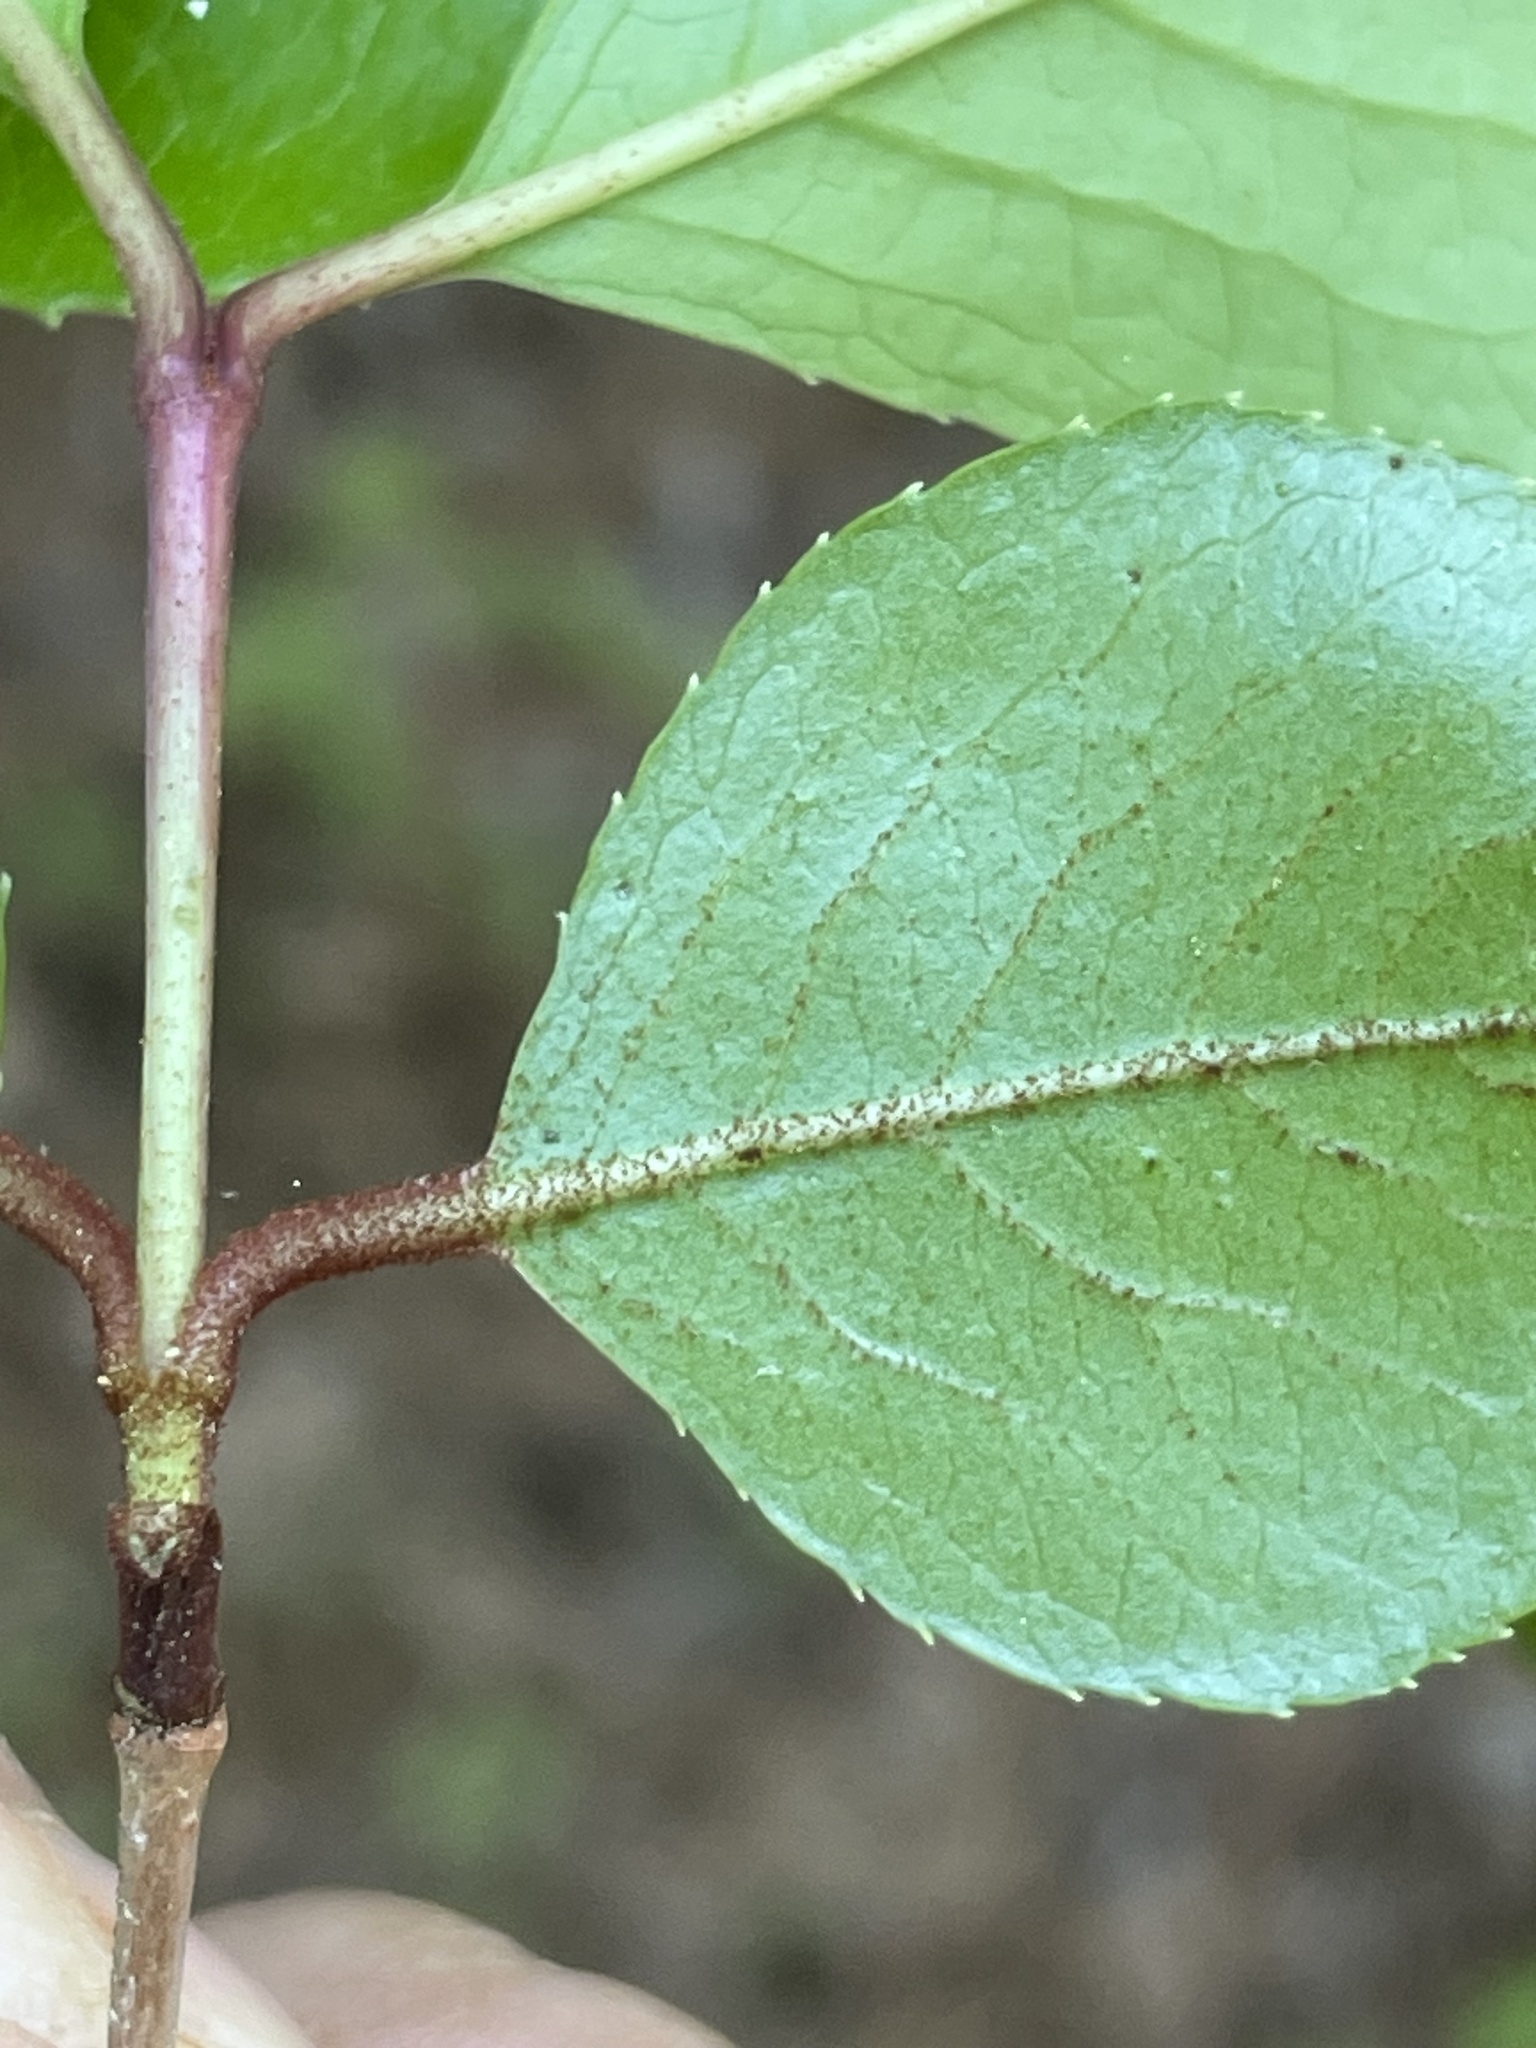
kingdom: Plantae
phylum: Tracheophyta
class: Magnoliopsida
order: Dipsacales
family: Viburnaceae
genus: Viburnum
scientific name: Viburnum rufidulum
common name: Blue haw
